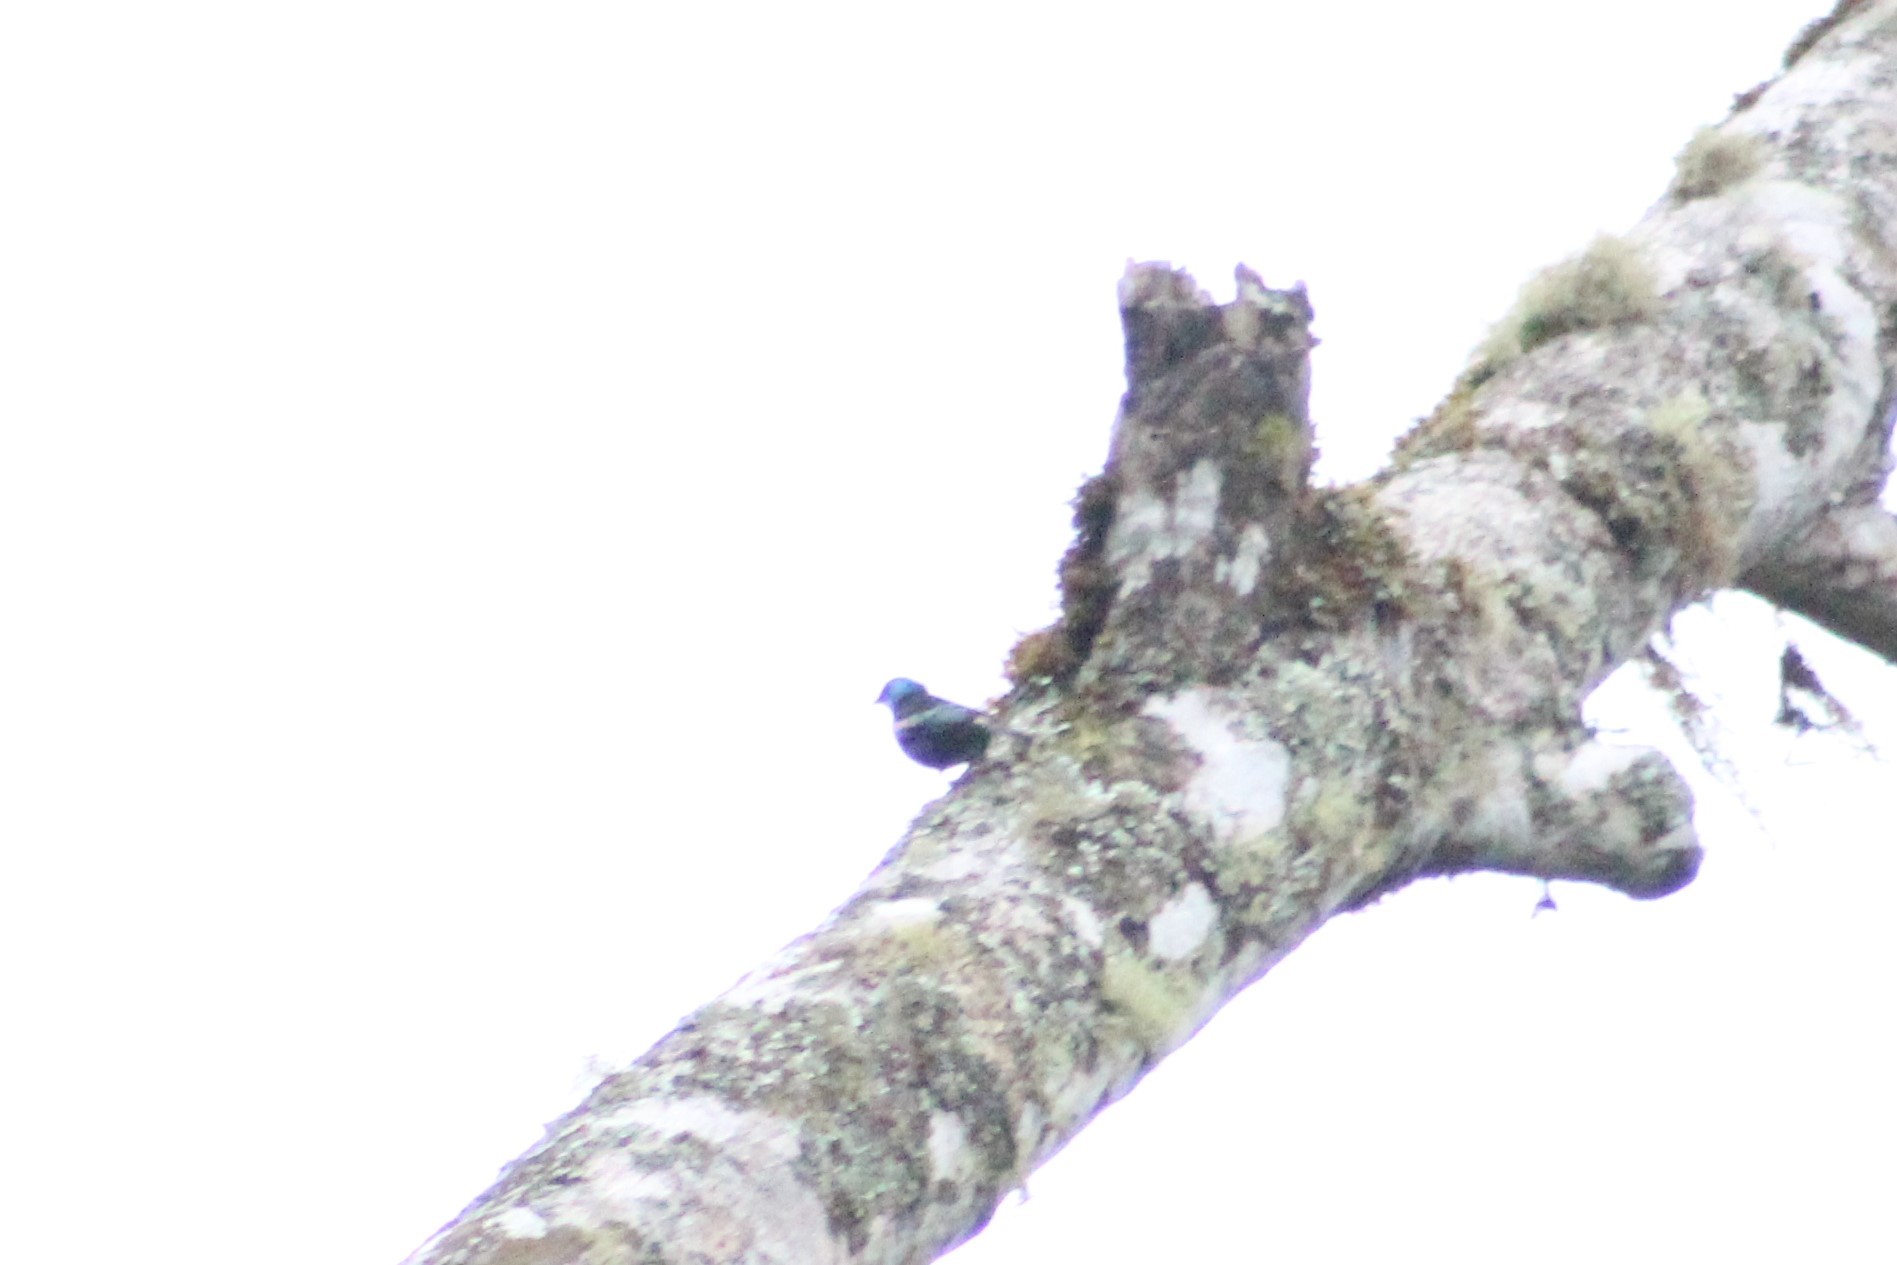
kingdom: Animalia
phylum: Chordata
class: Aves
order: Passeriformes
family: Thraupidae
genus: Stilpnia
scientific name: Stilpnia cyanicollis
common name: Blue-necked tanager
